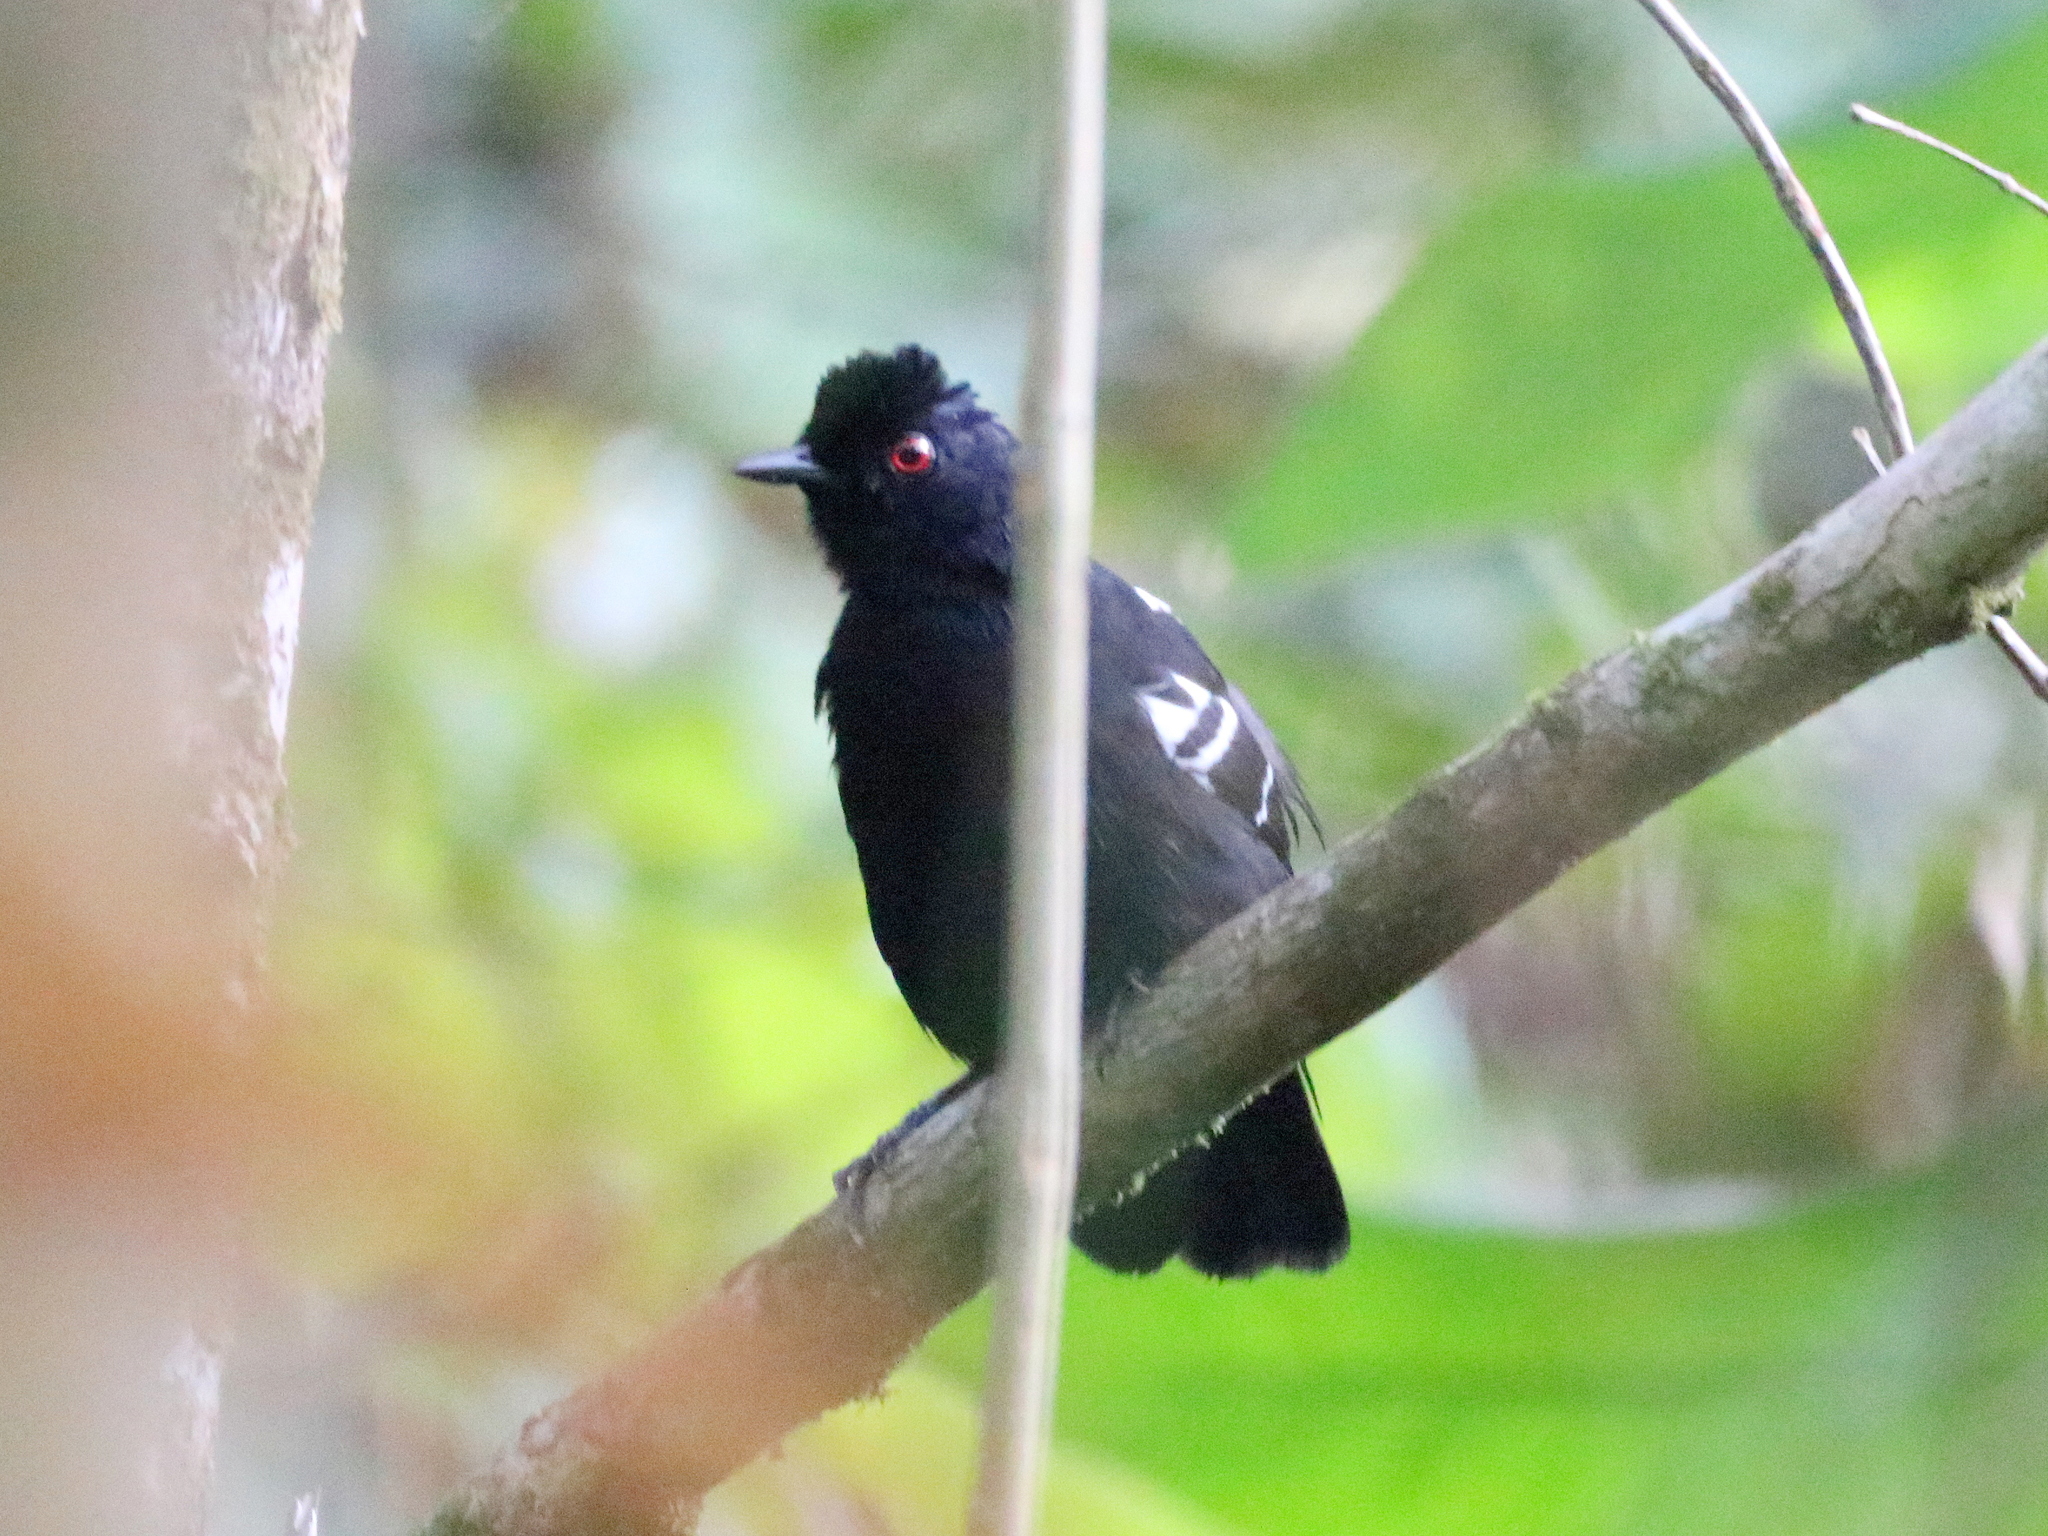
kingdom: Animalia
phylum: Chordata
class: Aves
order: Passeriformes
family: Thamnophilidae
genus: Pyriglena
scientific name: Pyriglena leucoptera
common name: White-shouldered fire-eye
